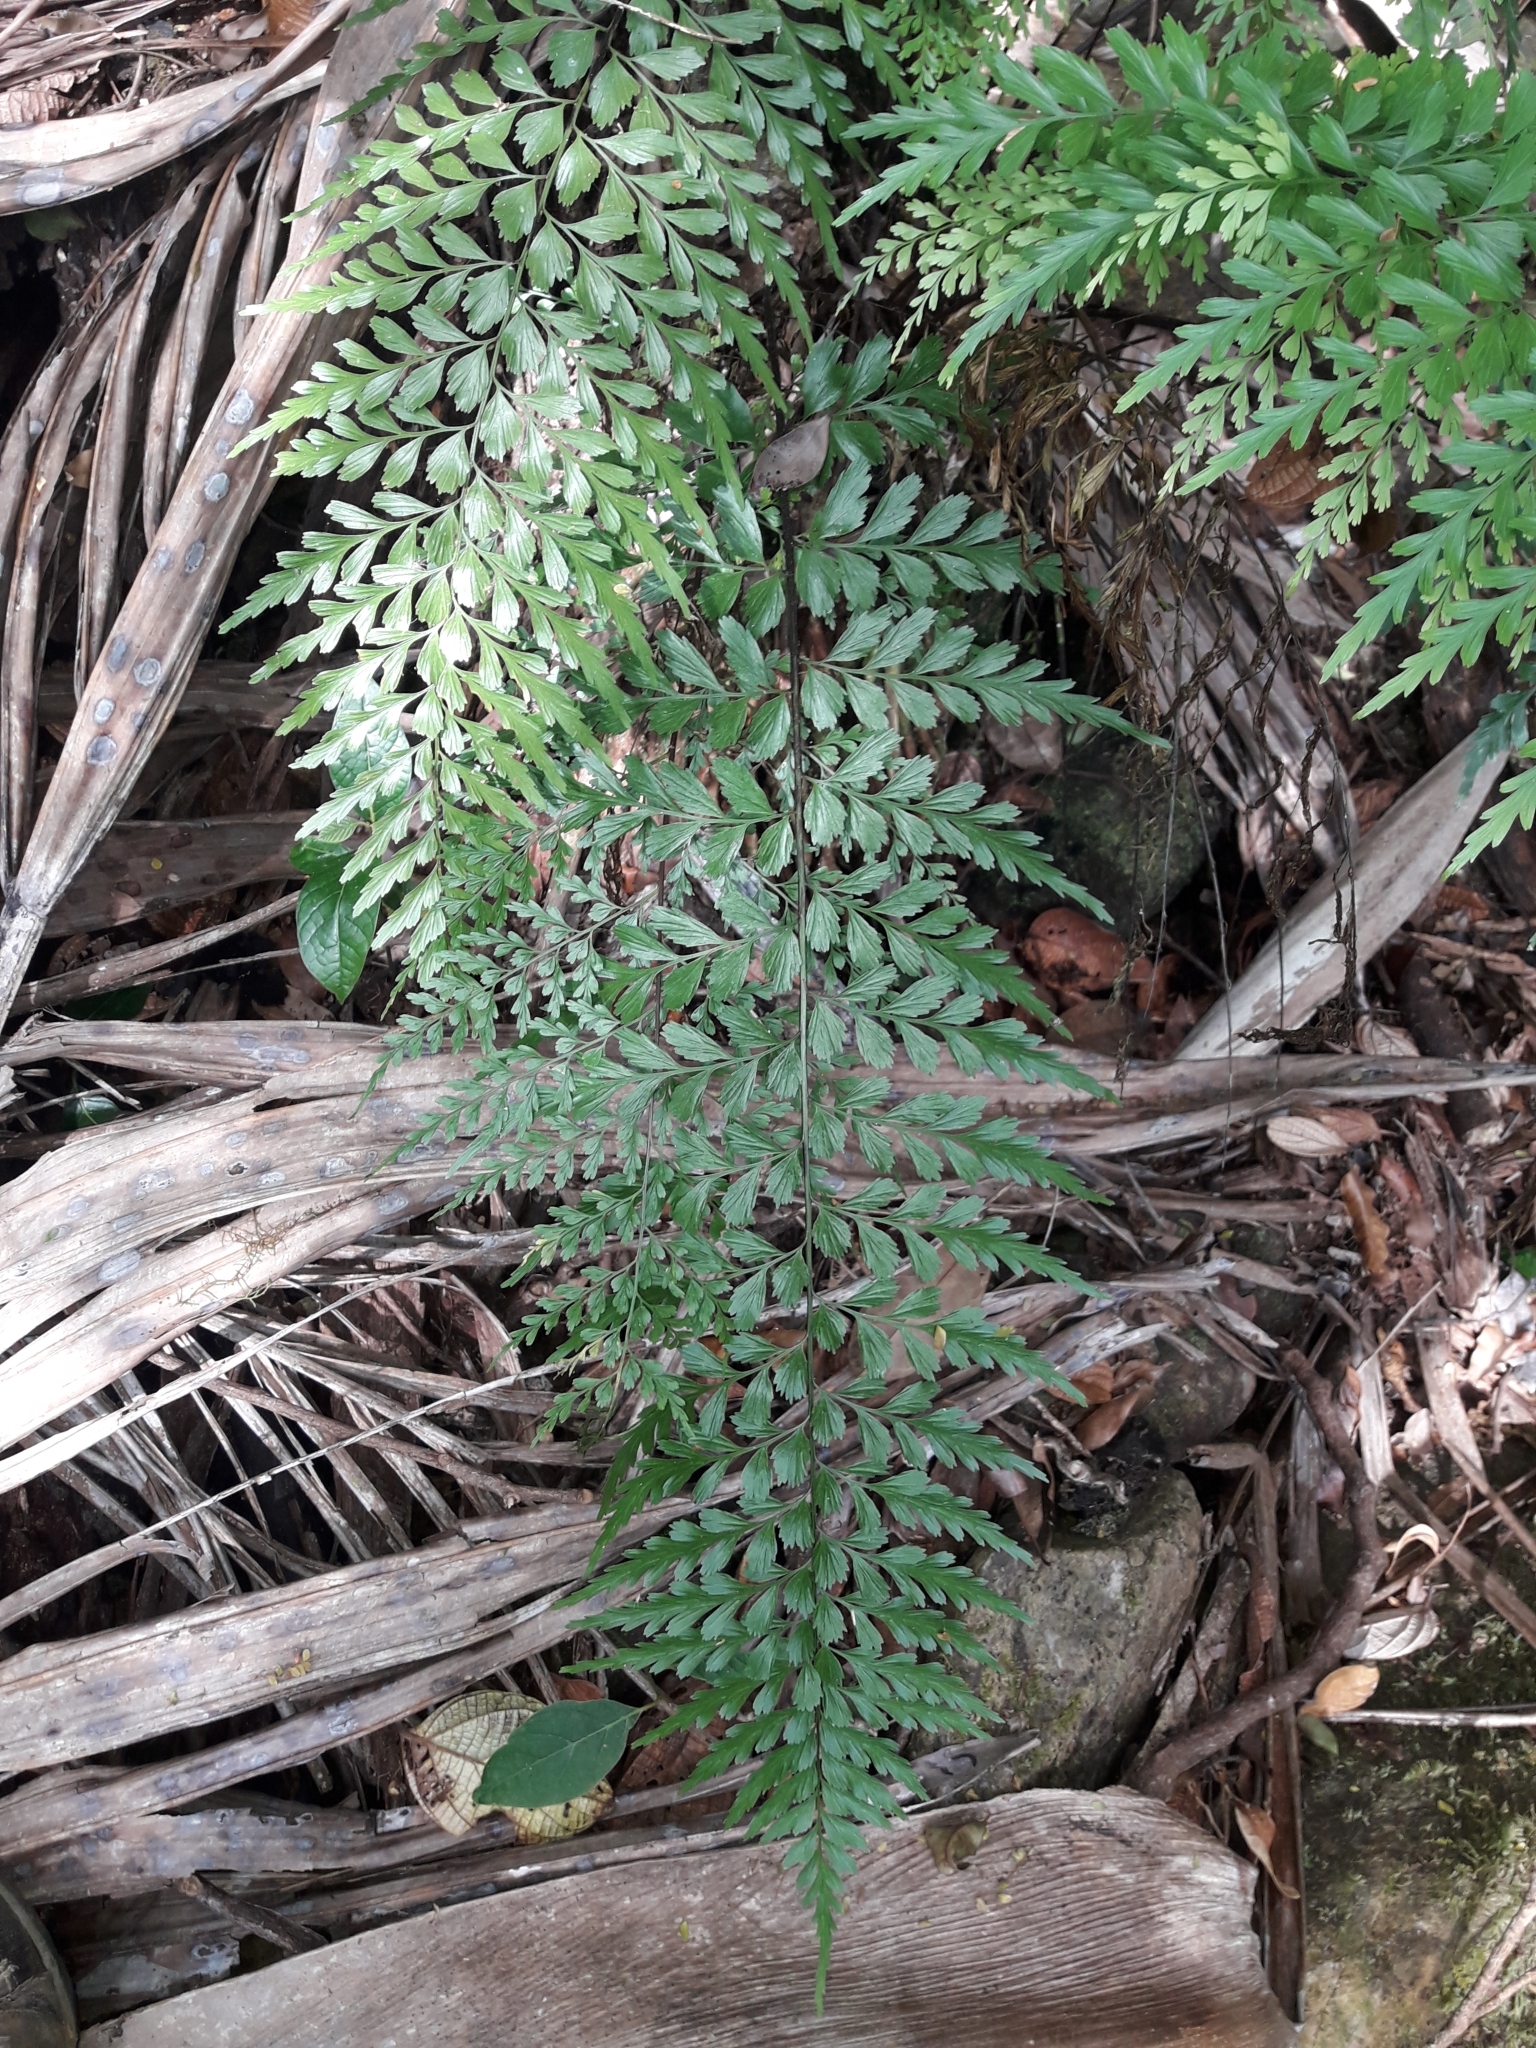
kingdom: Plantae
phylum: Tracheophyta
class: Polypodiopsida
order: Polypodiales
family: Aspleniaceae
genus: Asplenium
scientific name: Asplenium cuneatum
